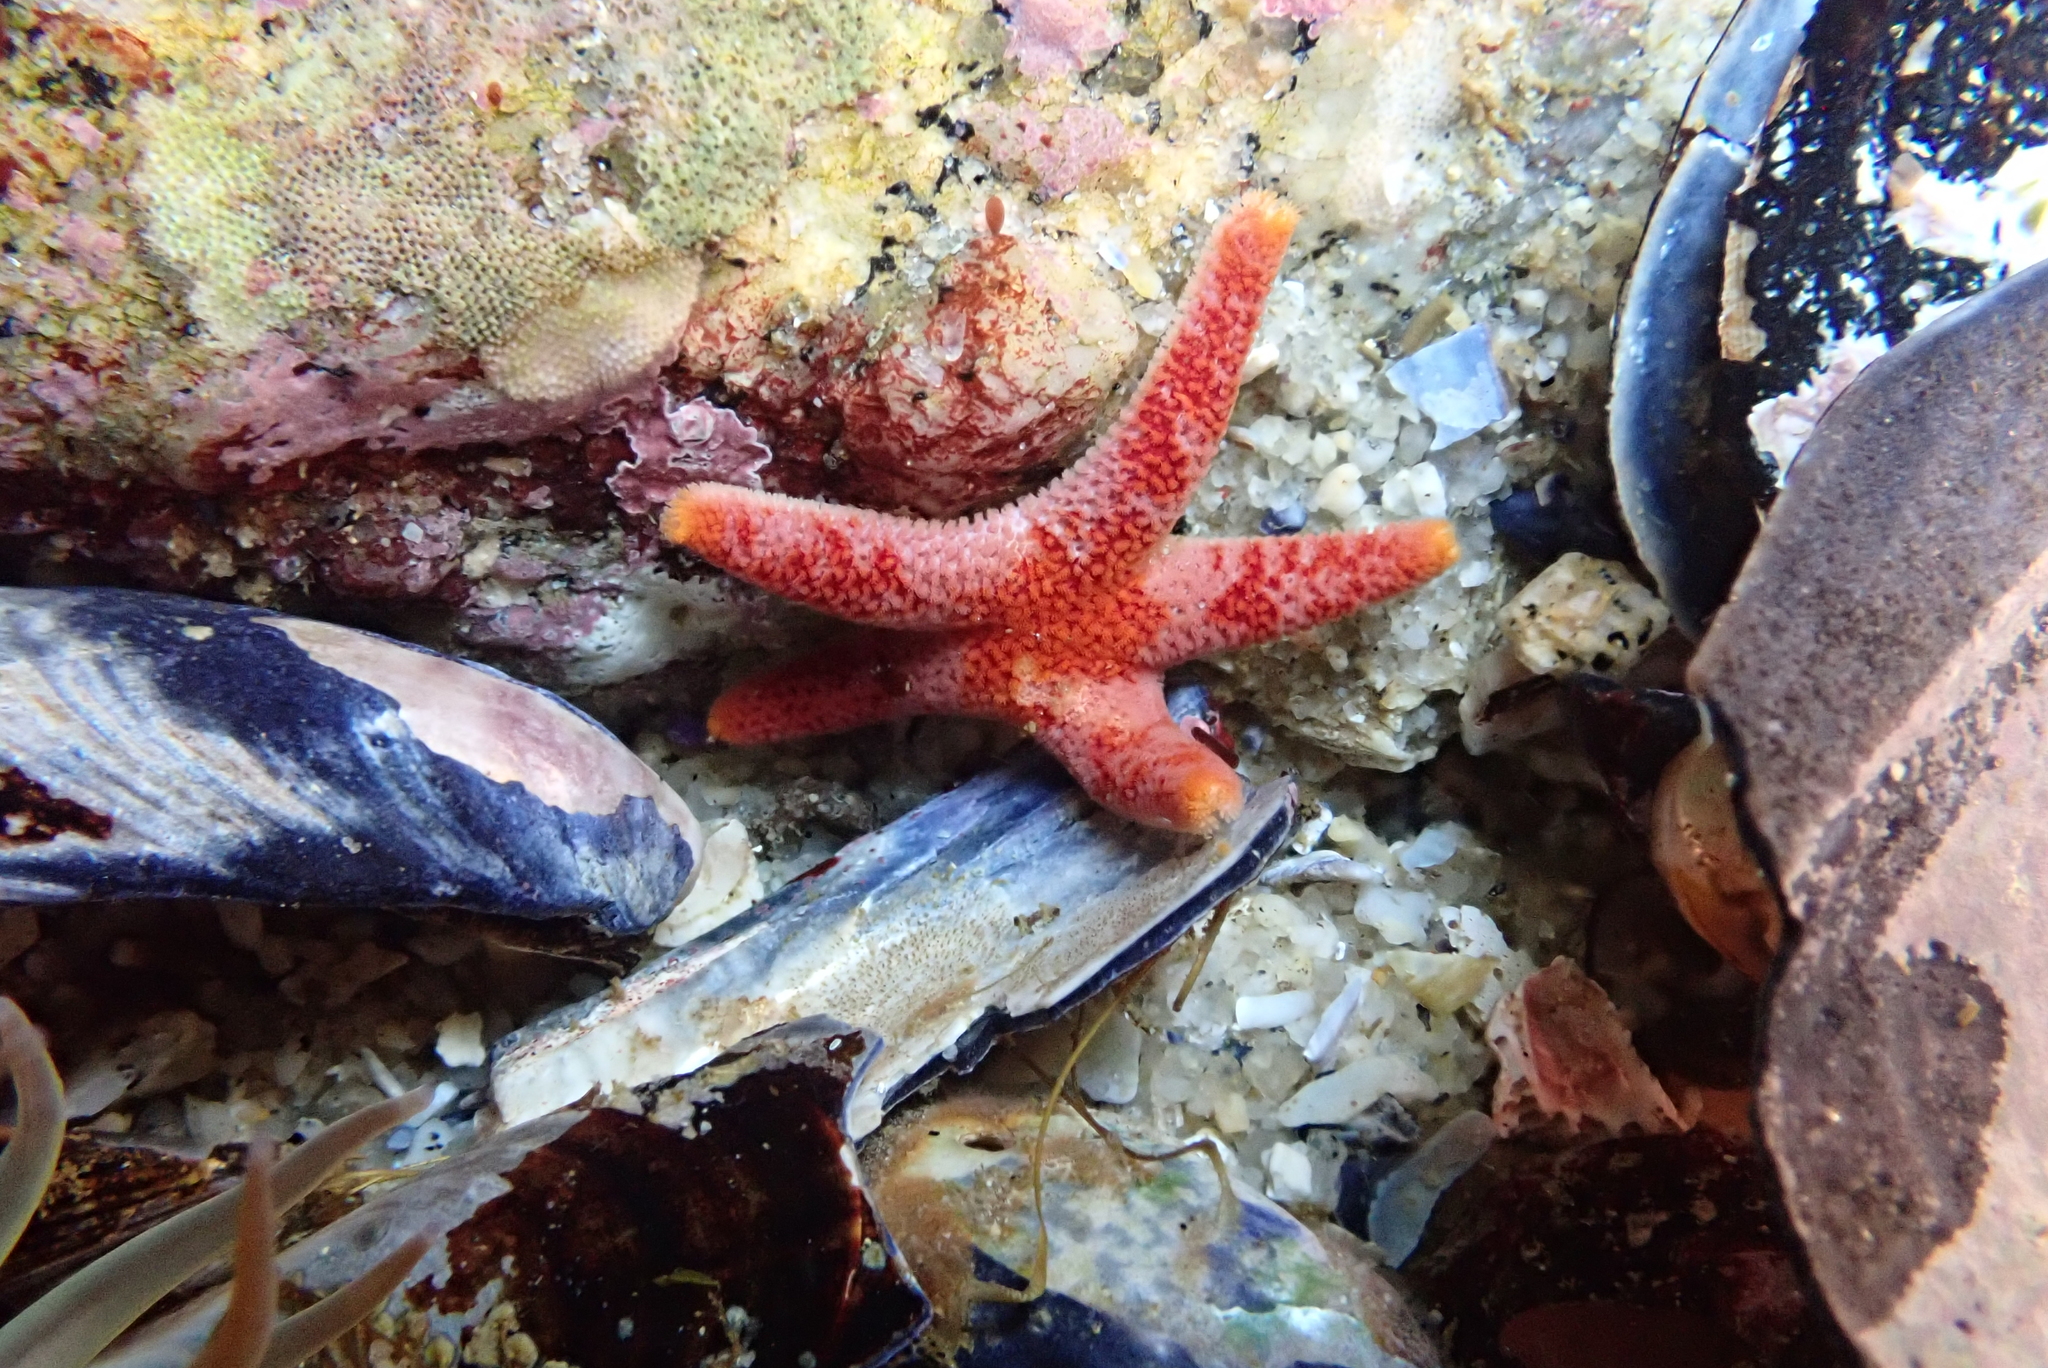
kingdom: Animalia
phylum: Echinodermata
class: Asteroidea
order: Spinulosida
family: Echinasteridae
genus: Henricia
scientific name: Henricia pumila
